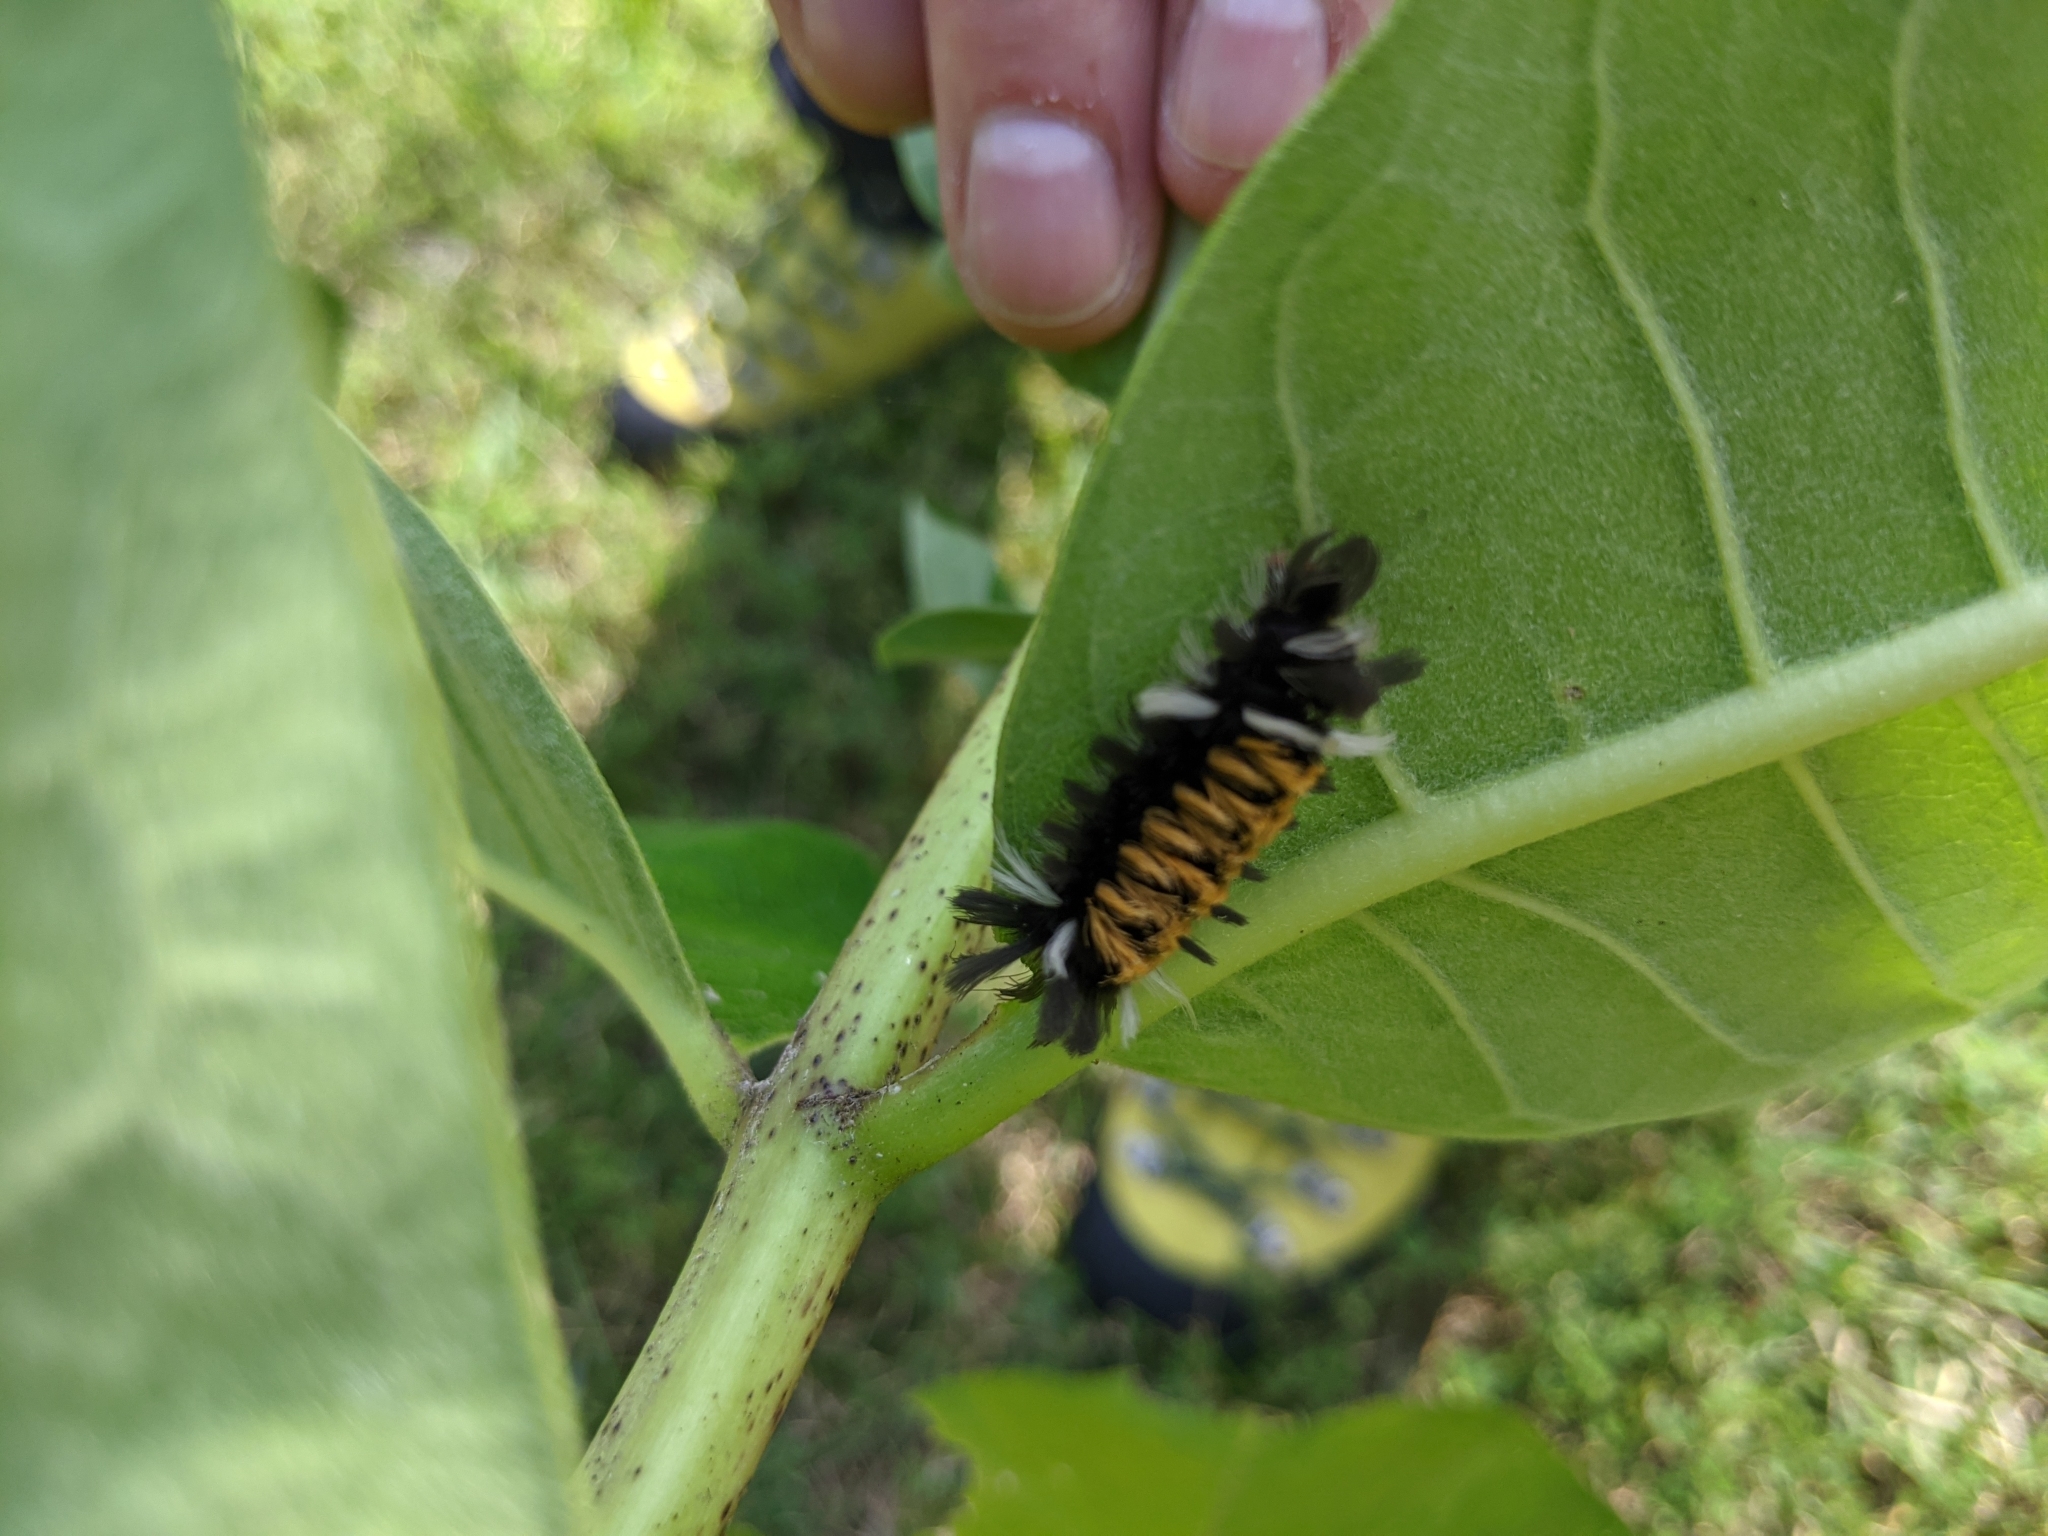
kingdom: Animalia
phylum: Arthropoda
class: Insecta
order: Lepidoptera
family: Erebidae
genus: Euchaetes
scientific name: Euchaetes egle
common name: Milkweed tussock moth
